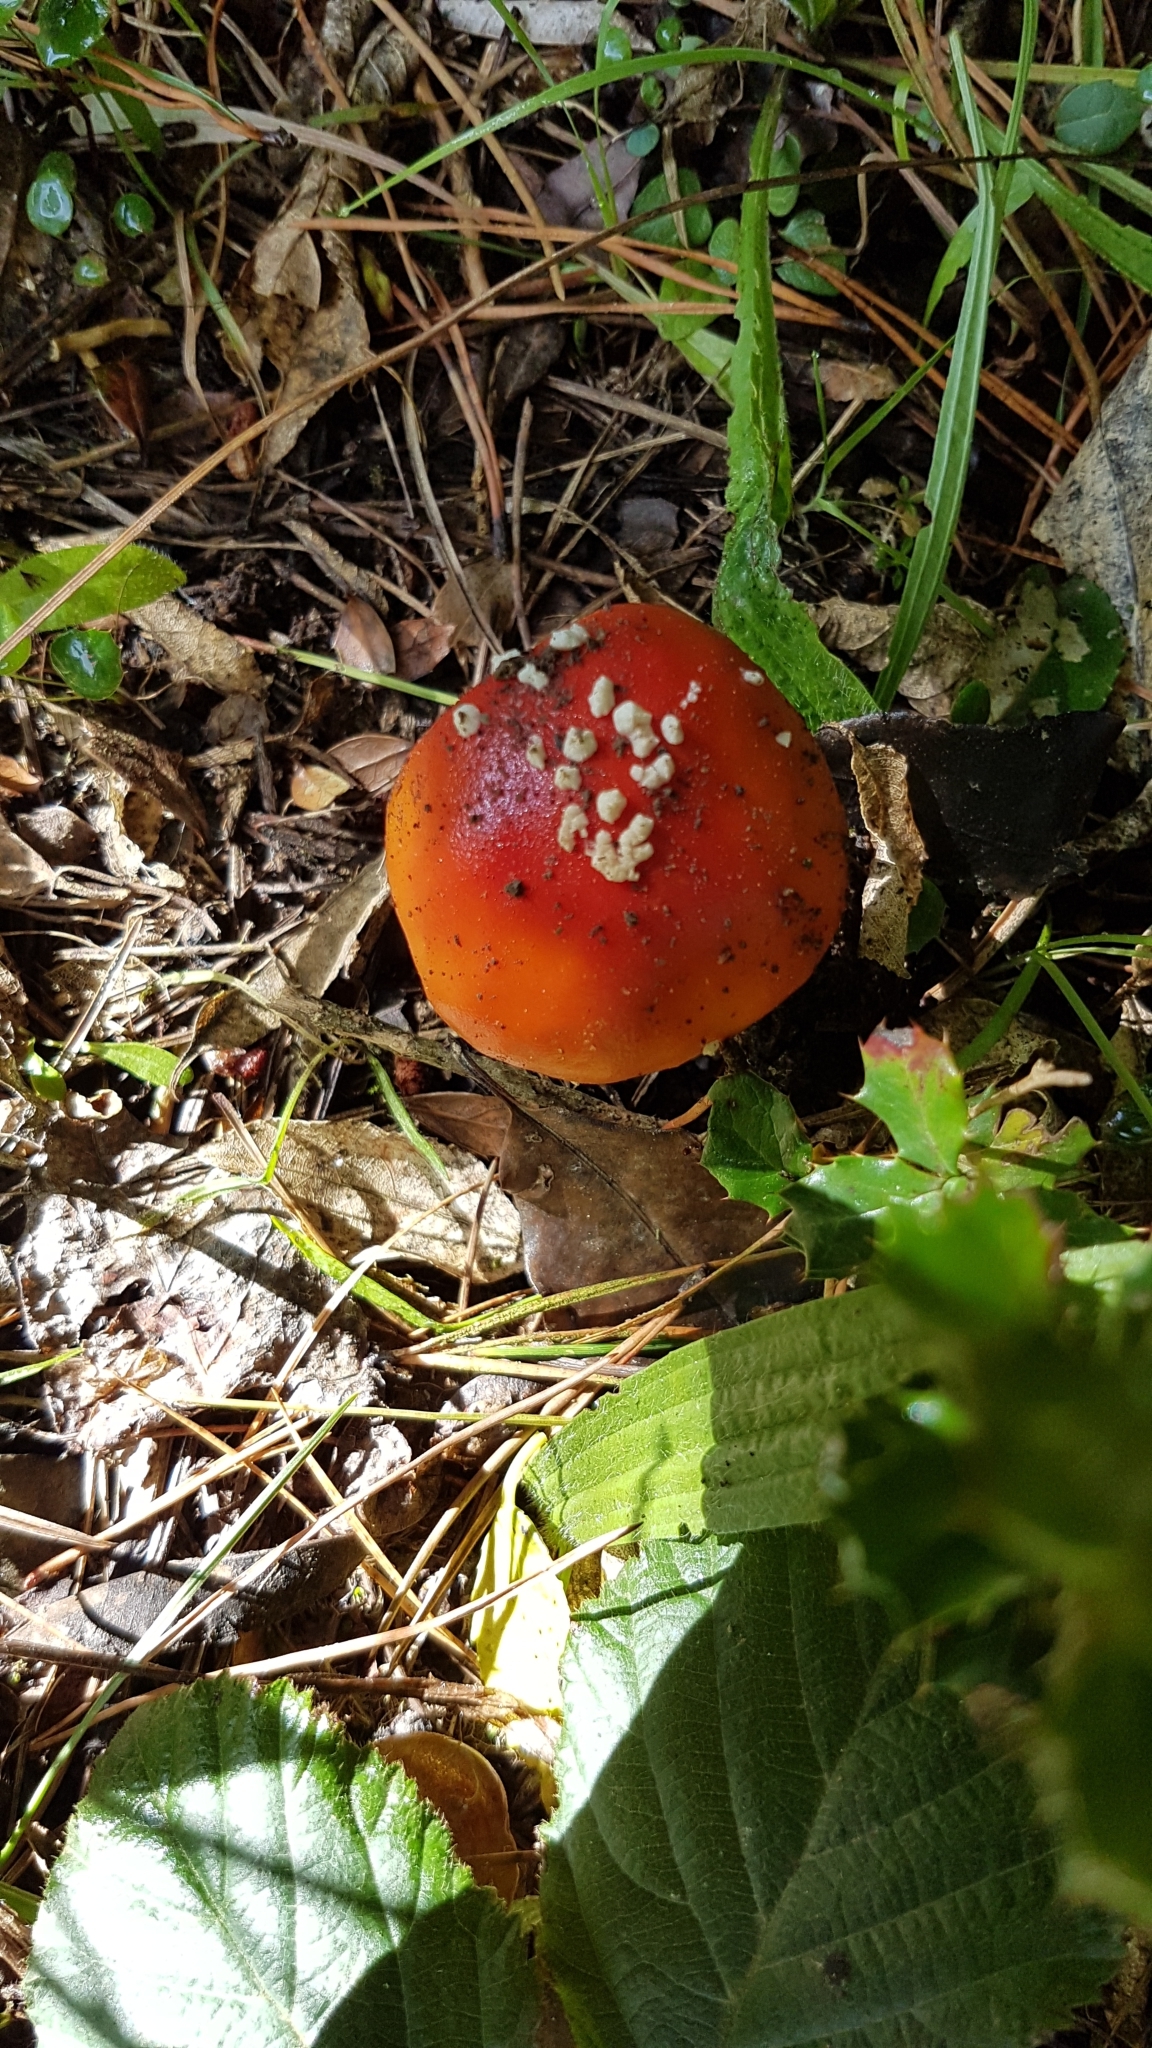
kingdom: Fungi
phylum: Basidiomycota
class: Agaricomycetes
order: Agaricales
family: Amanitaceae
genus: Amanita
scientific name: Amanita muscaria
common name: Fly agaric
